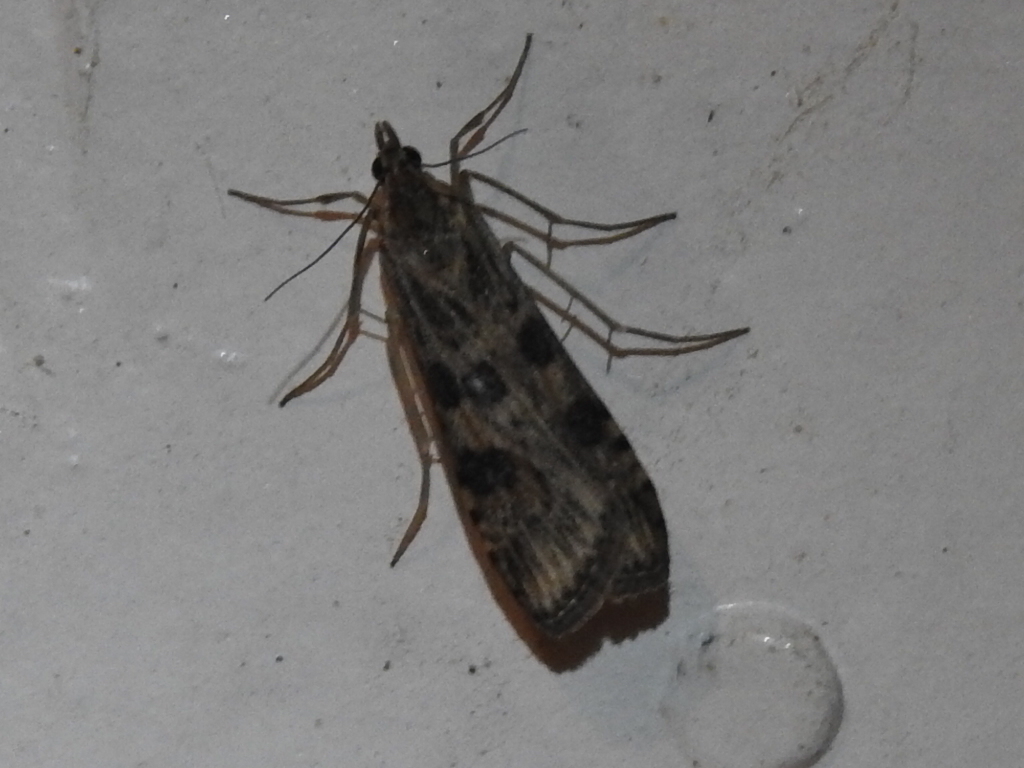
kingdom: Animalia
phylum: Arthropoda
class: Insecta
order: Lepidoptera
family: Crambidae
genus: Nomophila
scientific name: Nomophila nearctica
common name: American rush veneer
